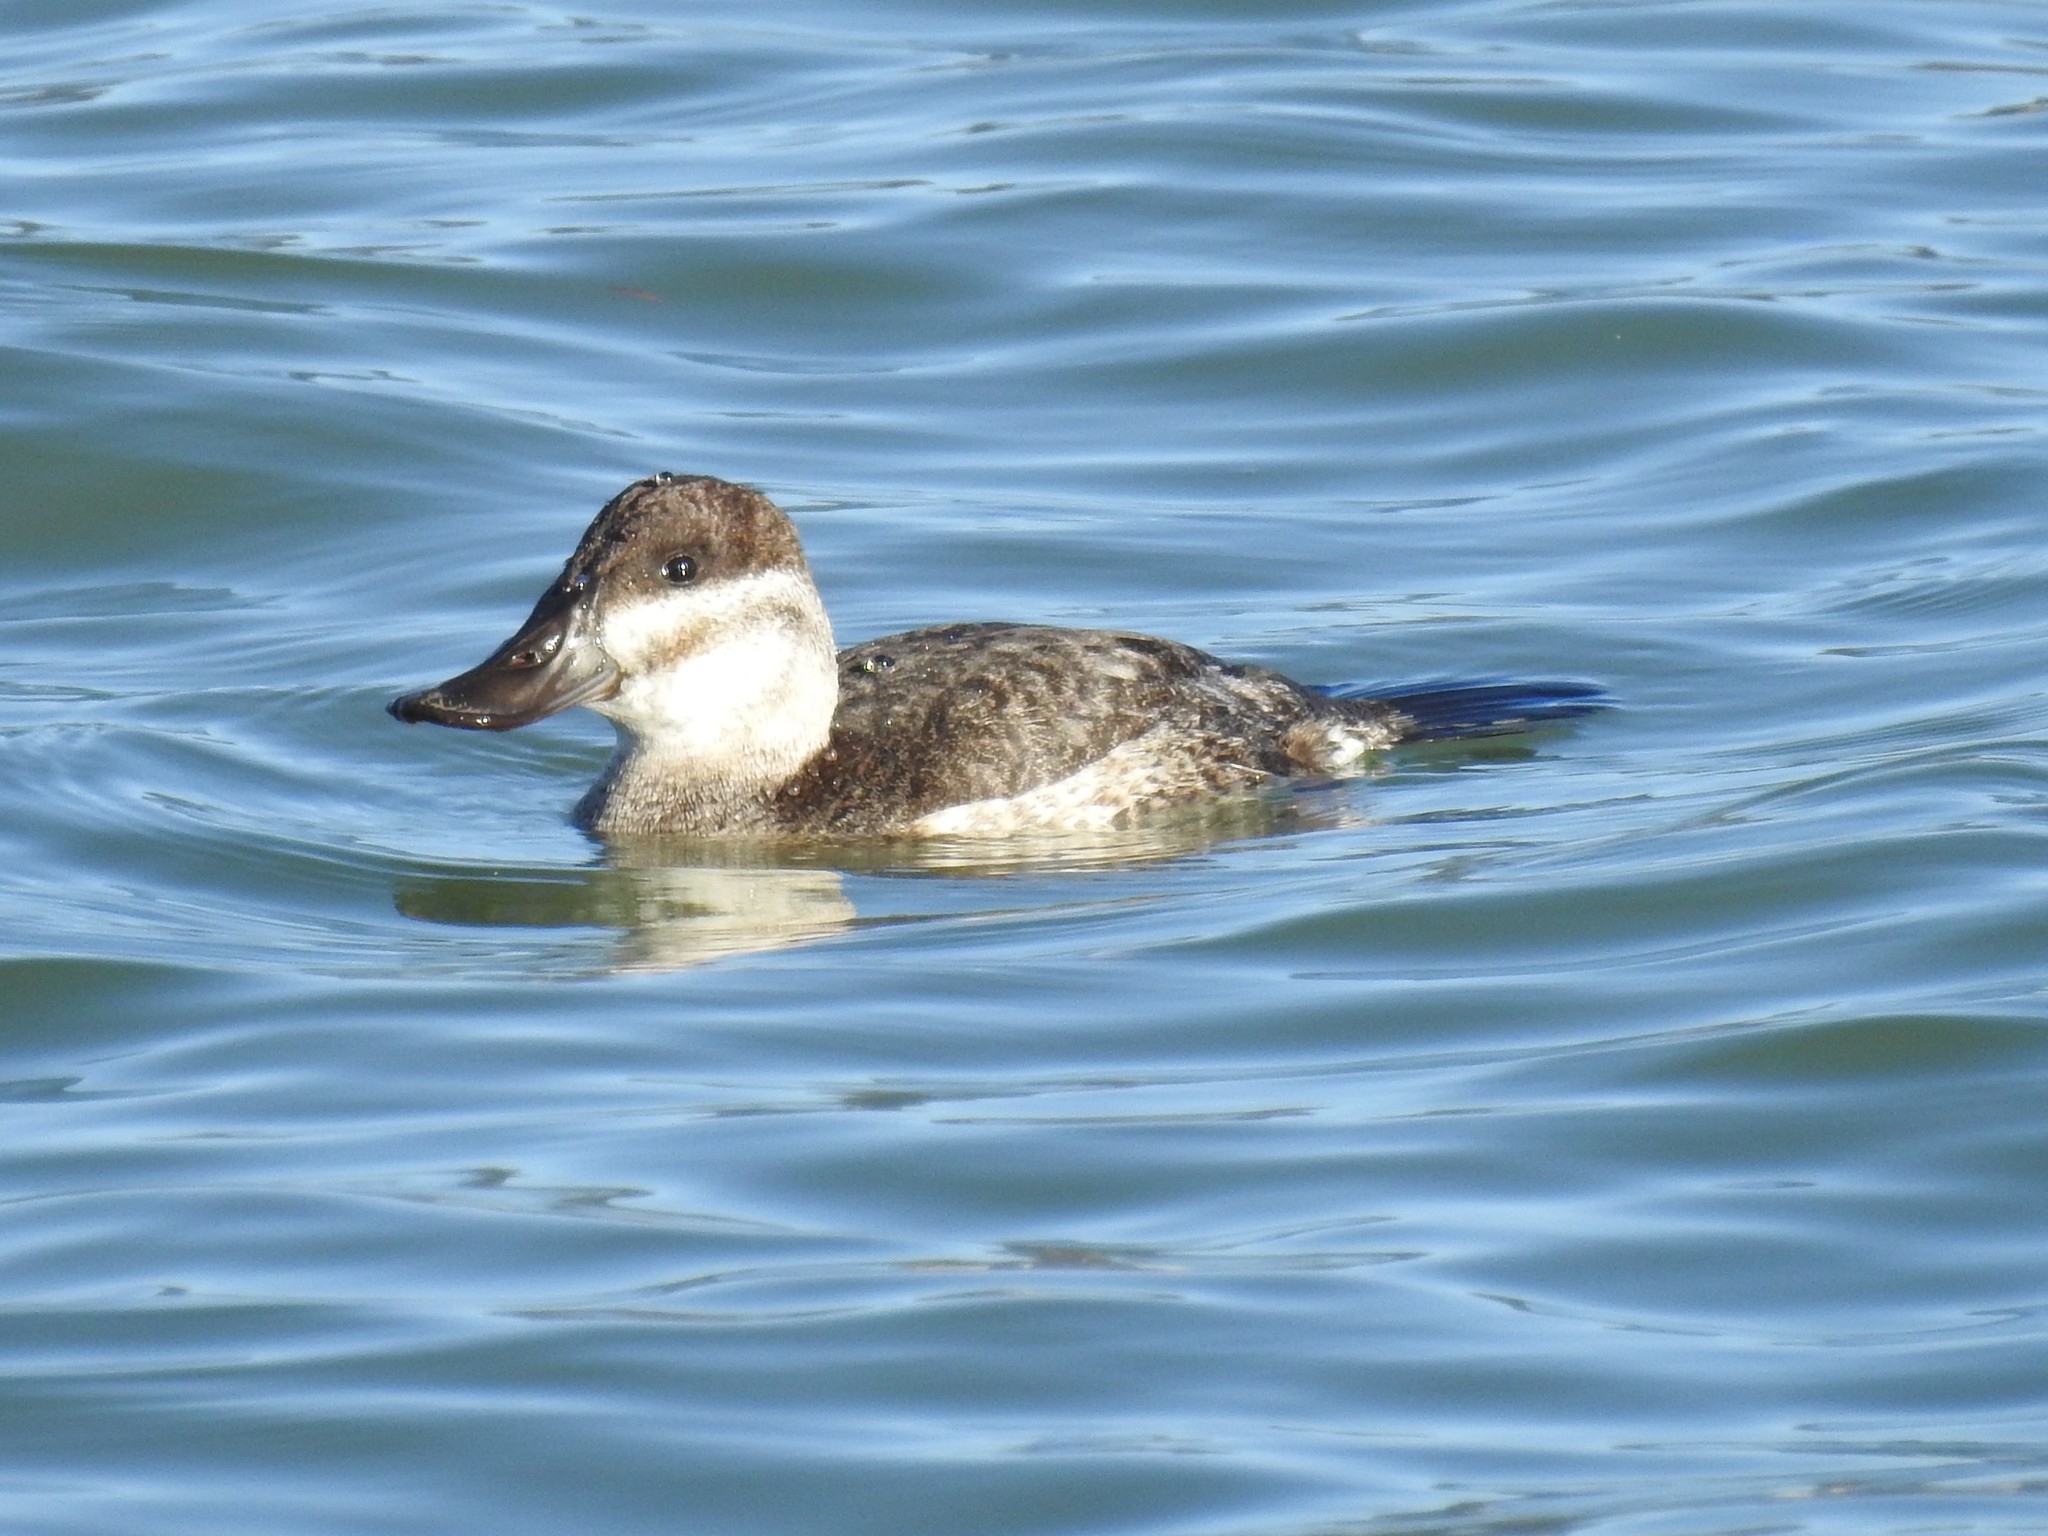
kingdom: Animalia
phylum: Chordata
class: Aves
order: Anseriformes
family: Anatidae
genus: Oxyura
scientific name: Oxyura jamaicensis
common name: Ruddy duck
